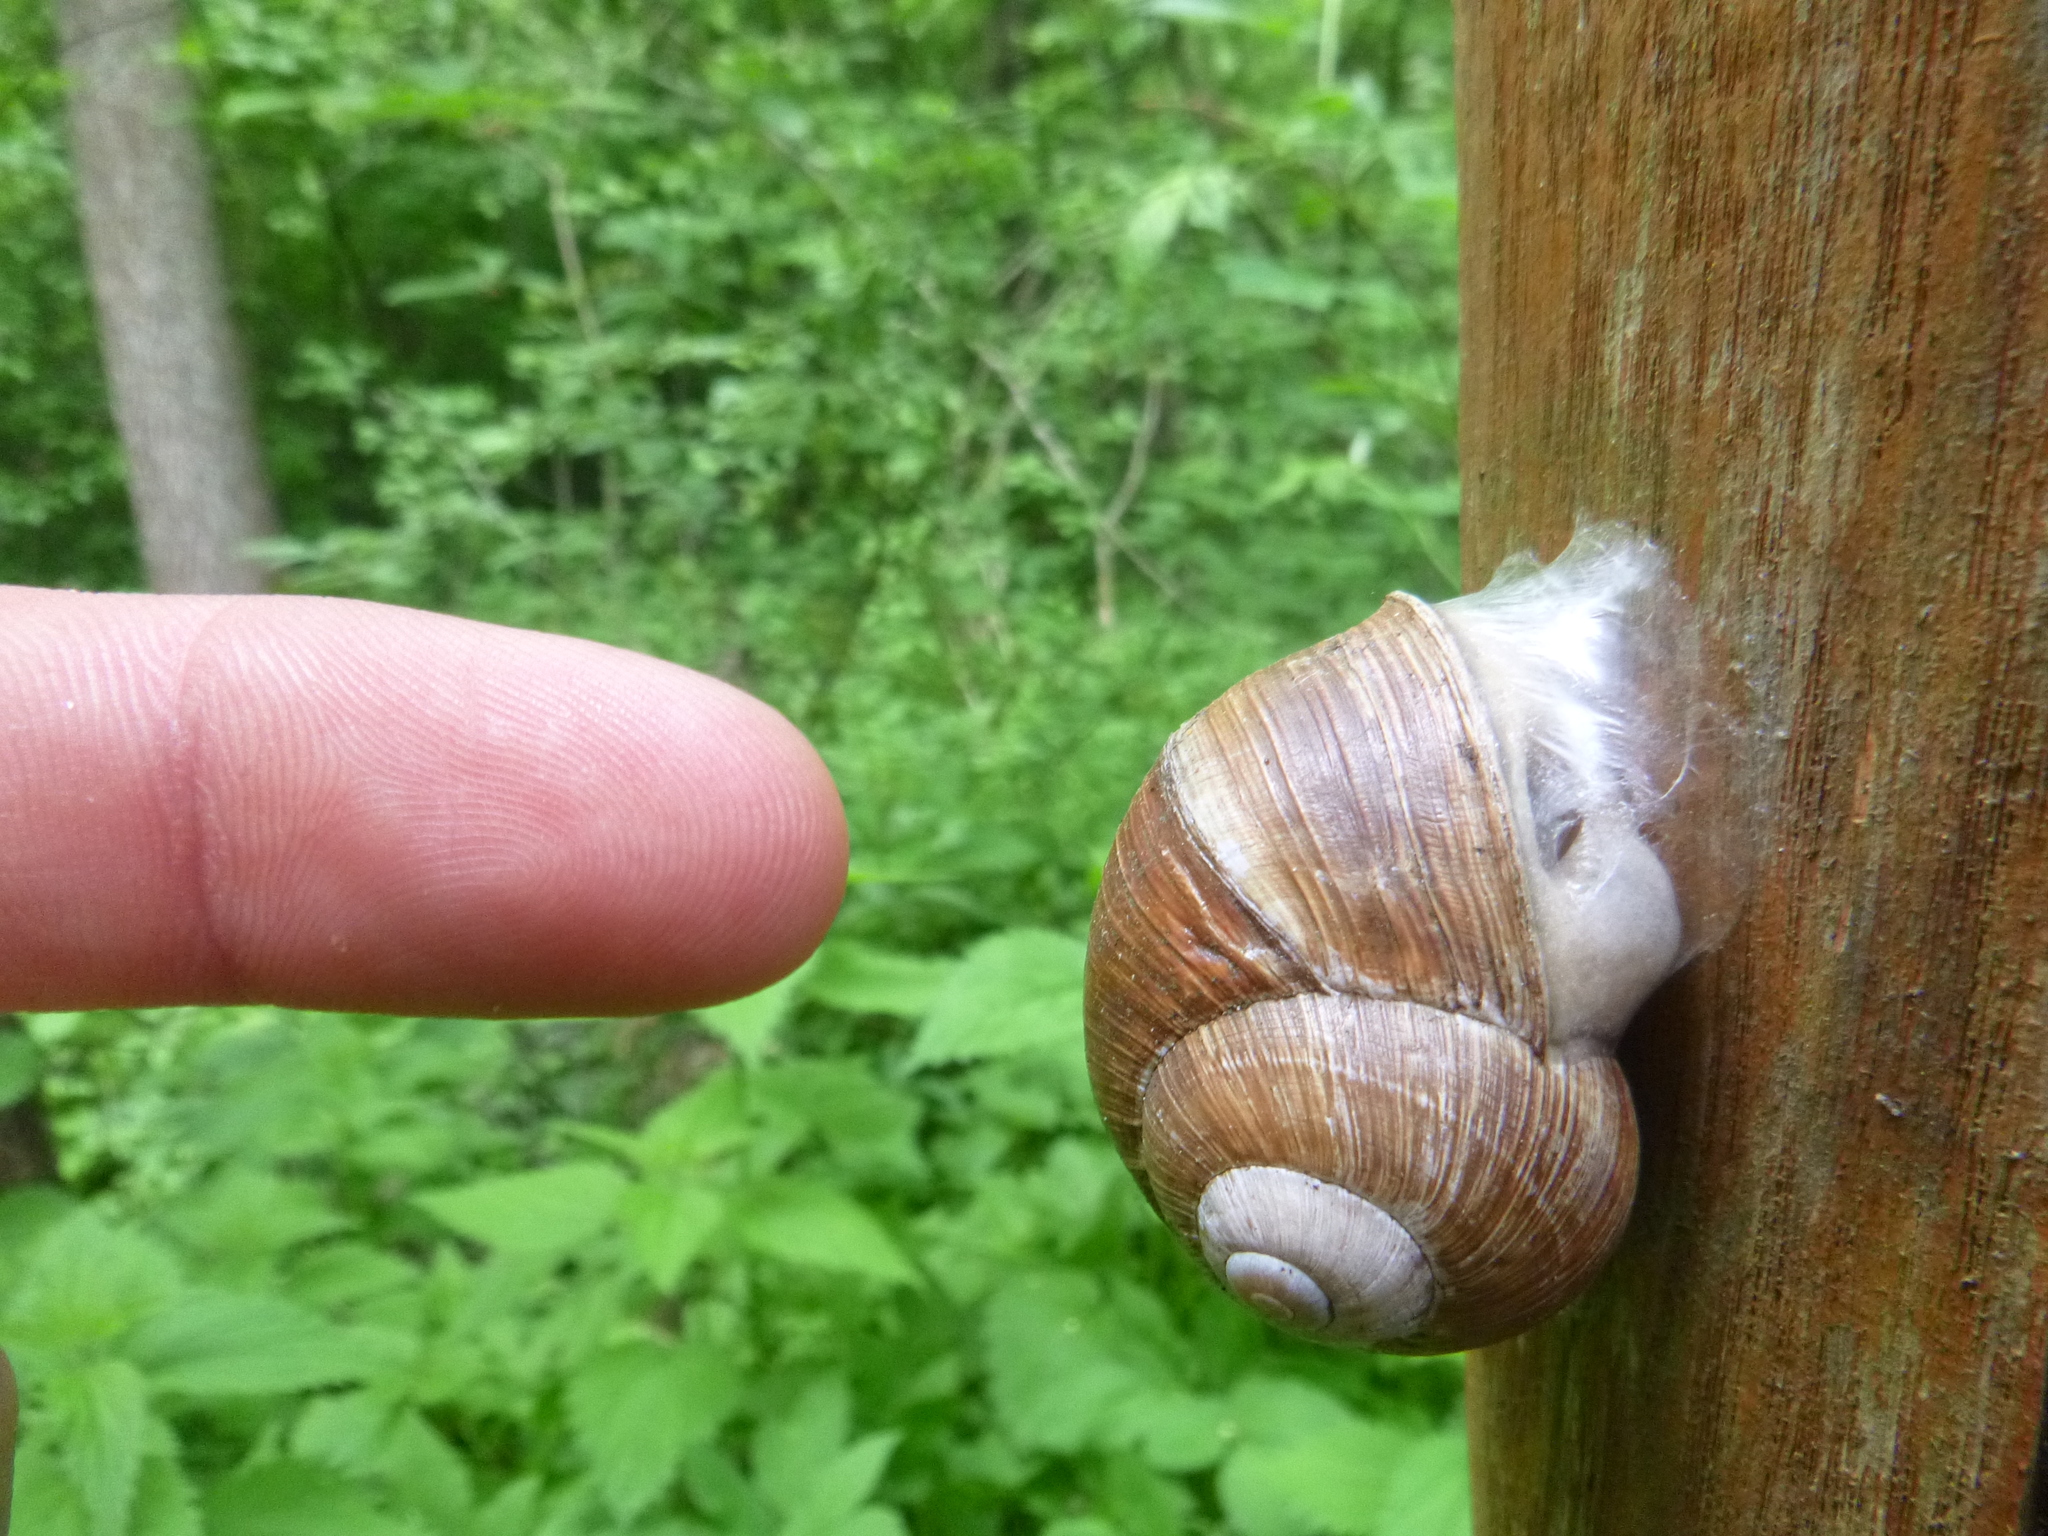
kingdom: Animalia
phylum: Mollusca
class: Gastropoda
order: Stylommatophora
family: Helicidae
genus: Helix
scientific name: Helix pomatia
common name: Roman snail
